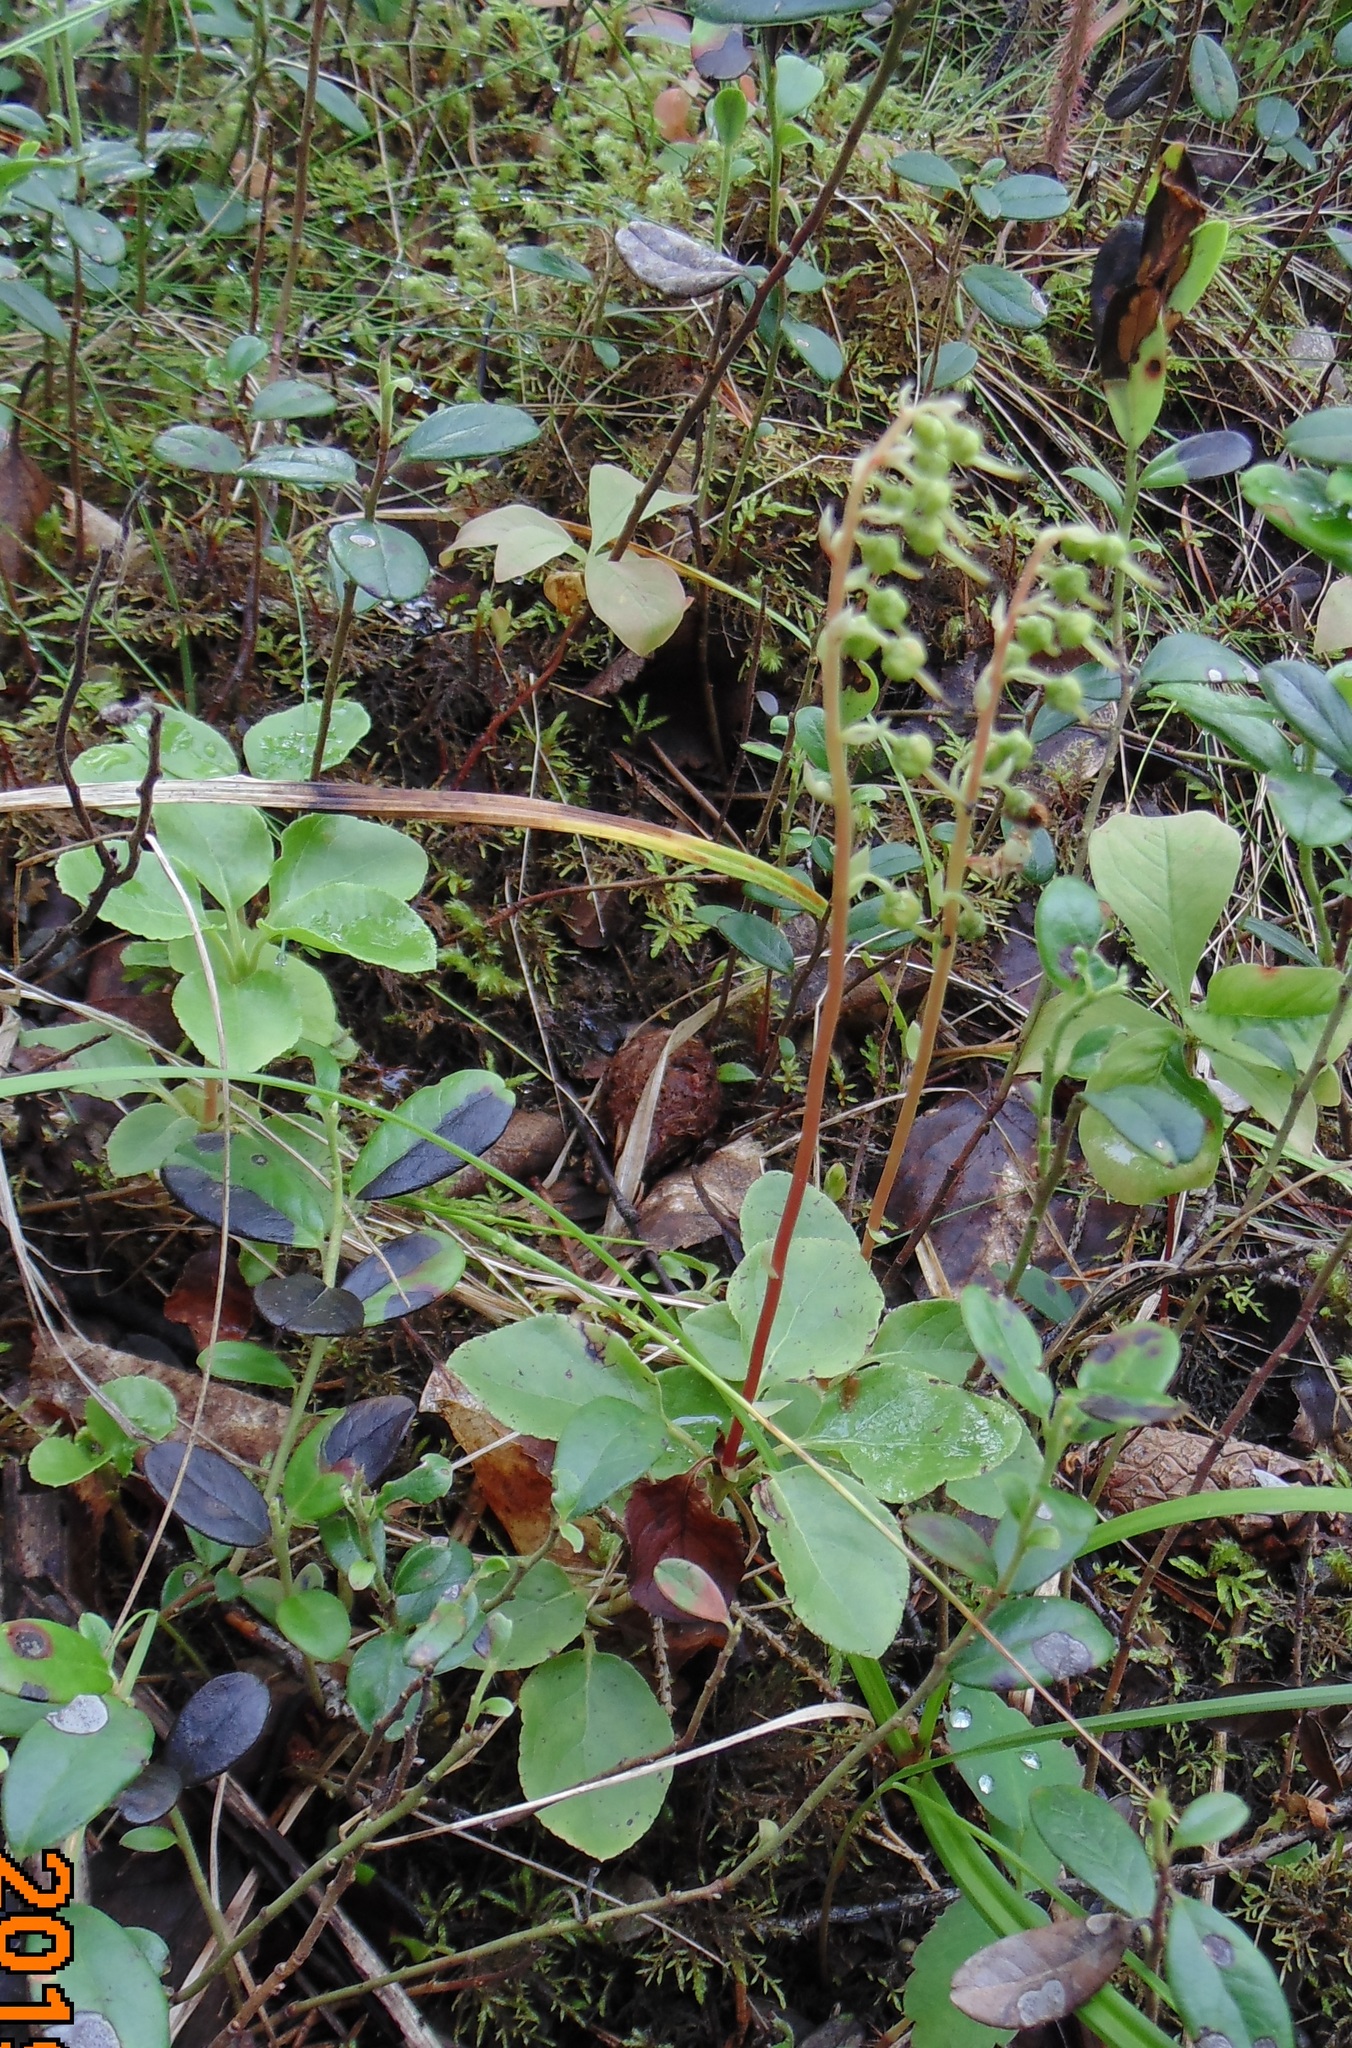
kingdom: Plantae
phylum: Tracheophyta
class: Magnoliopsida
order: Ericales
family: Ericaceae
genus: Orthilia
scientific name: Orthilia secunda
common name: One-sided orthilia
